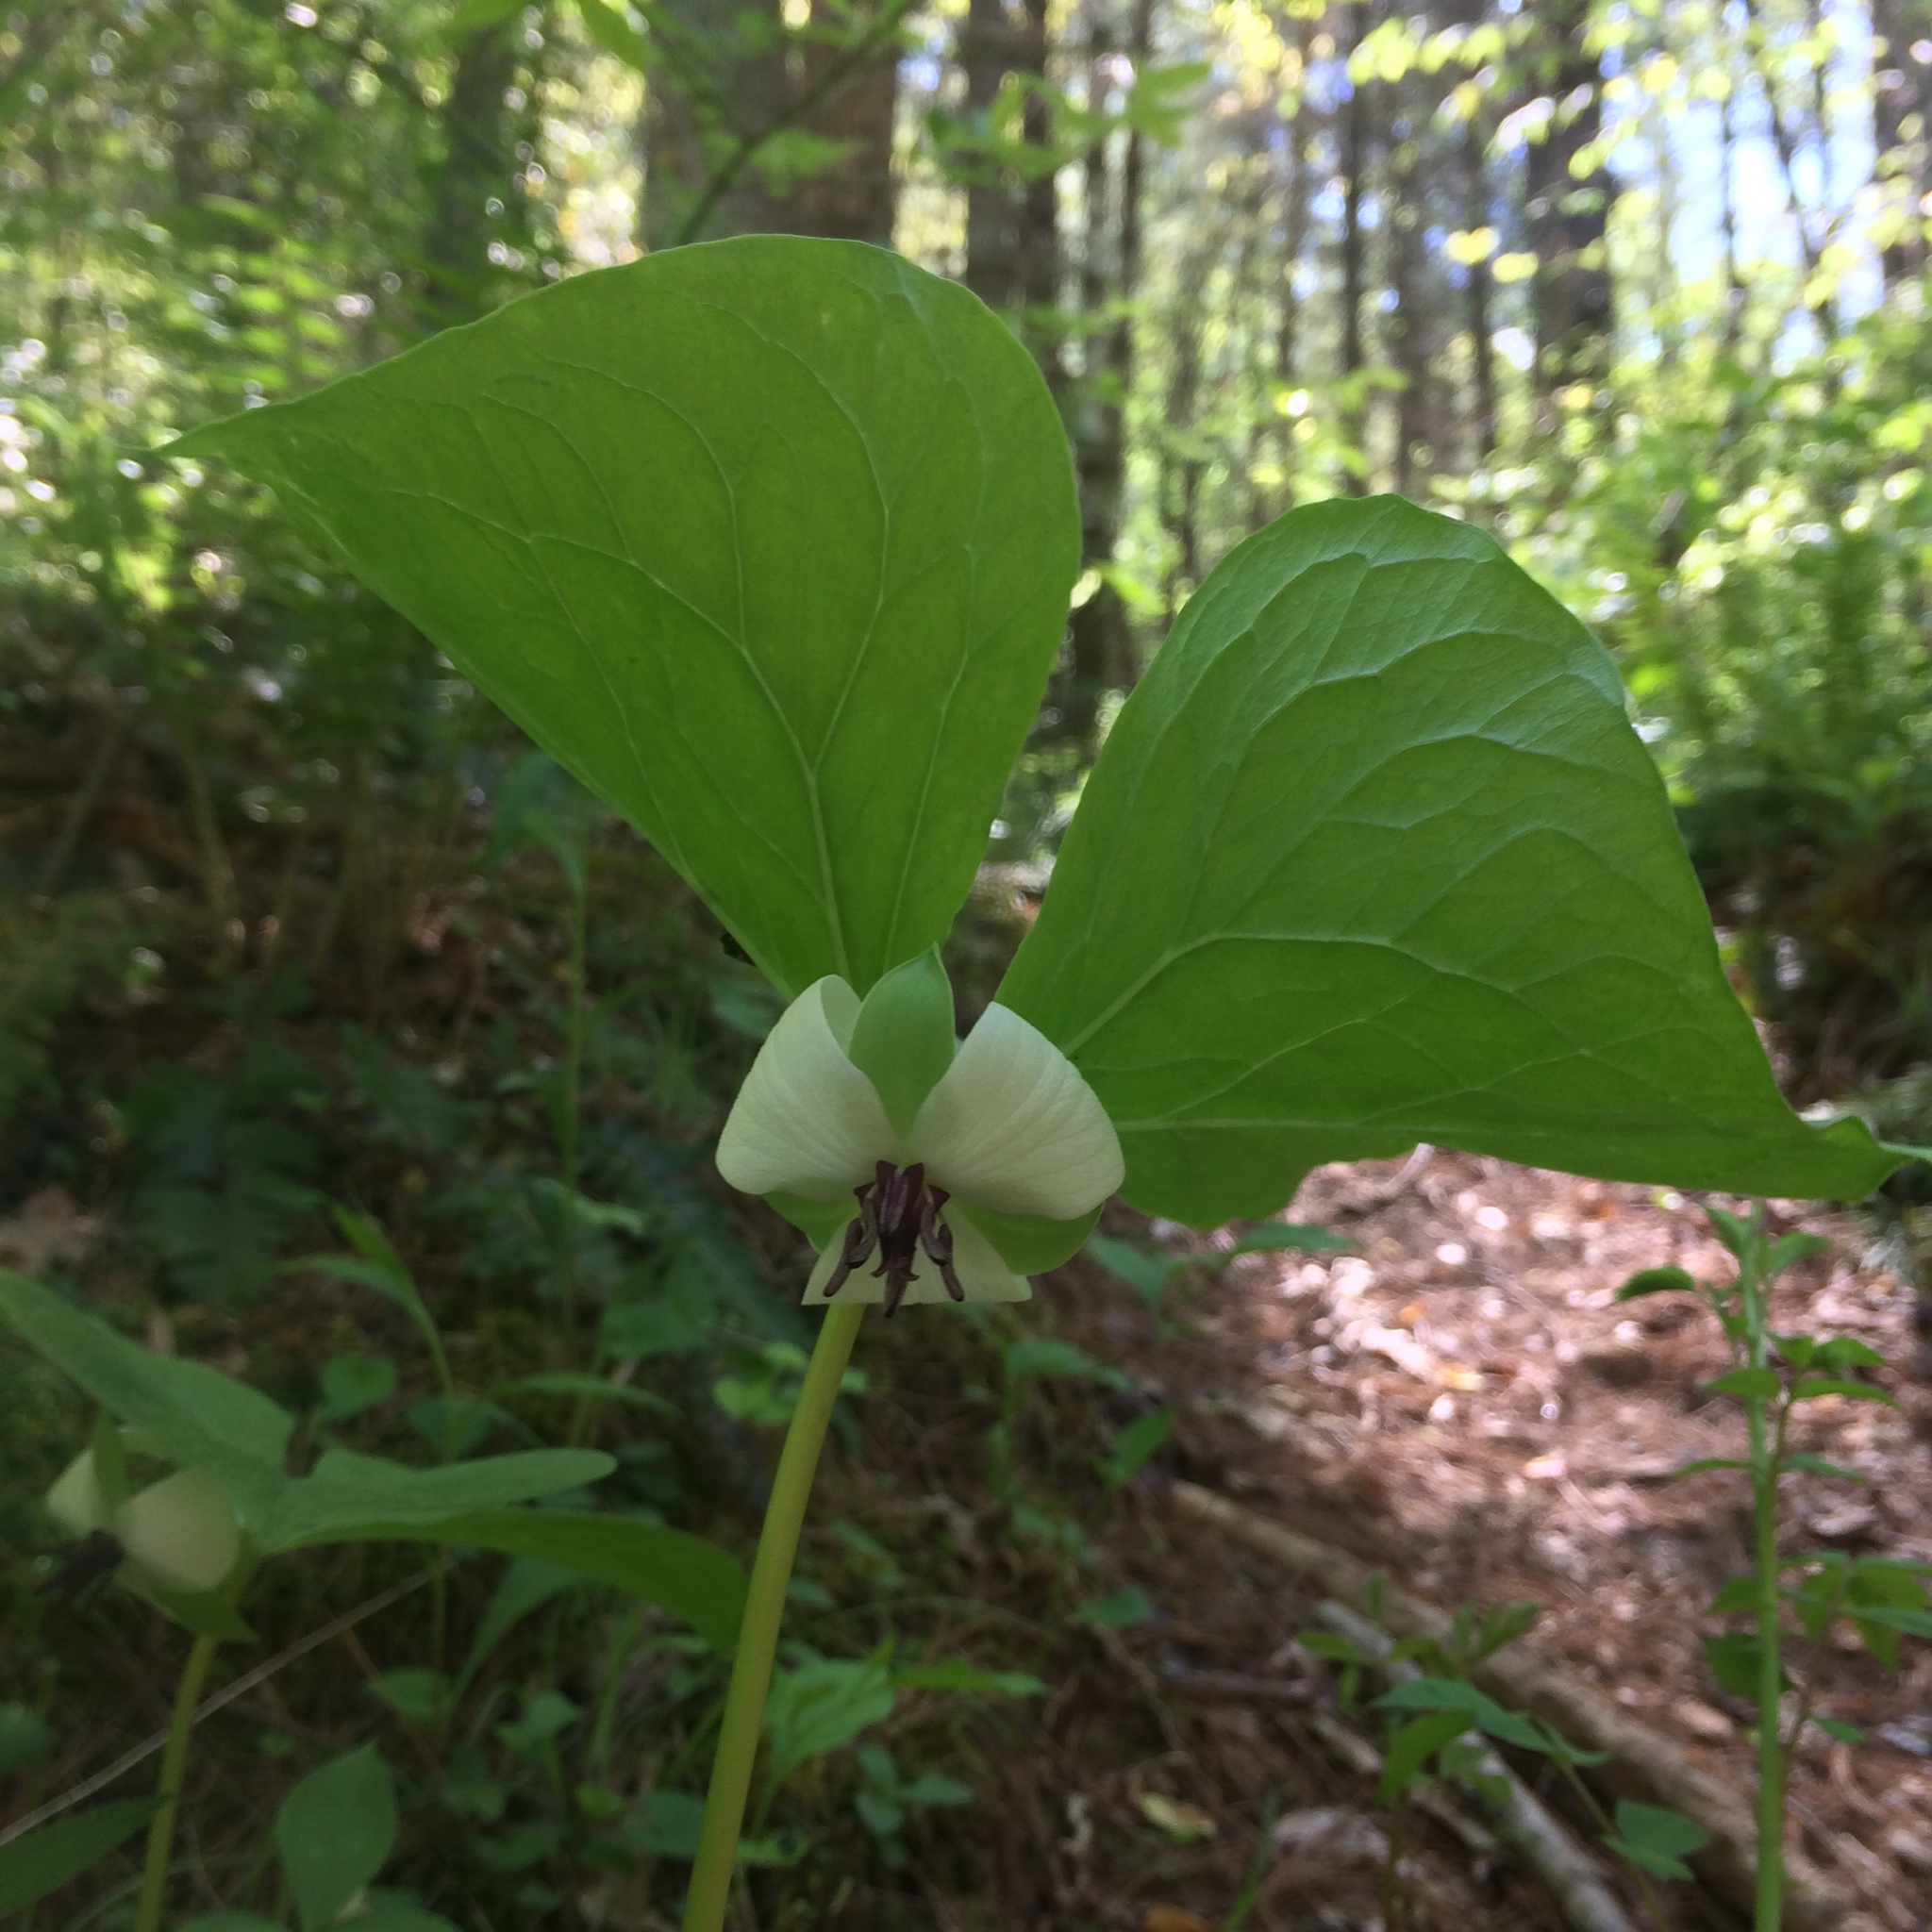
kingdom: Plantae
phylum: Tracheophyta
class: Liliopsida
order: Liliales
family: Melanthiaceae
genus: Trillium
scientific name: Trillium rugelii
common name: Ill-scented trillium
